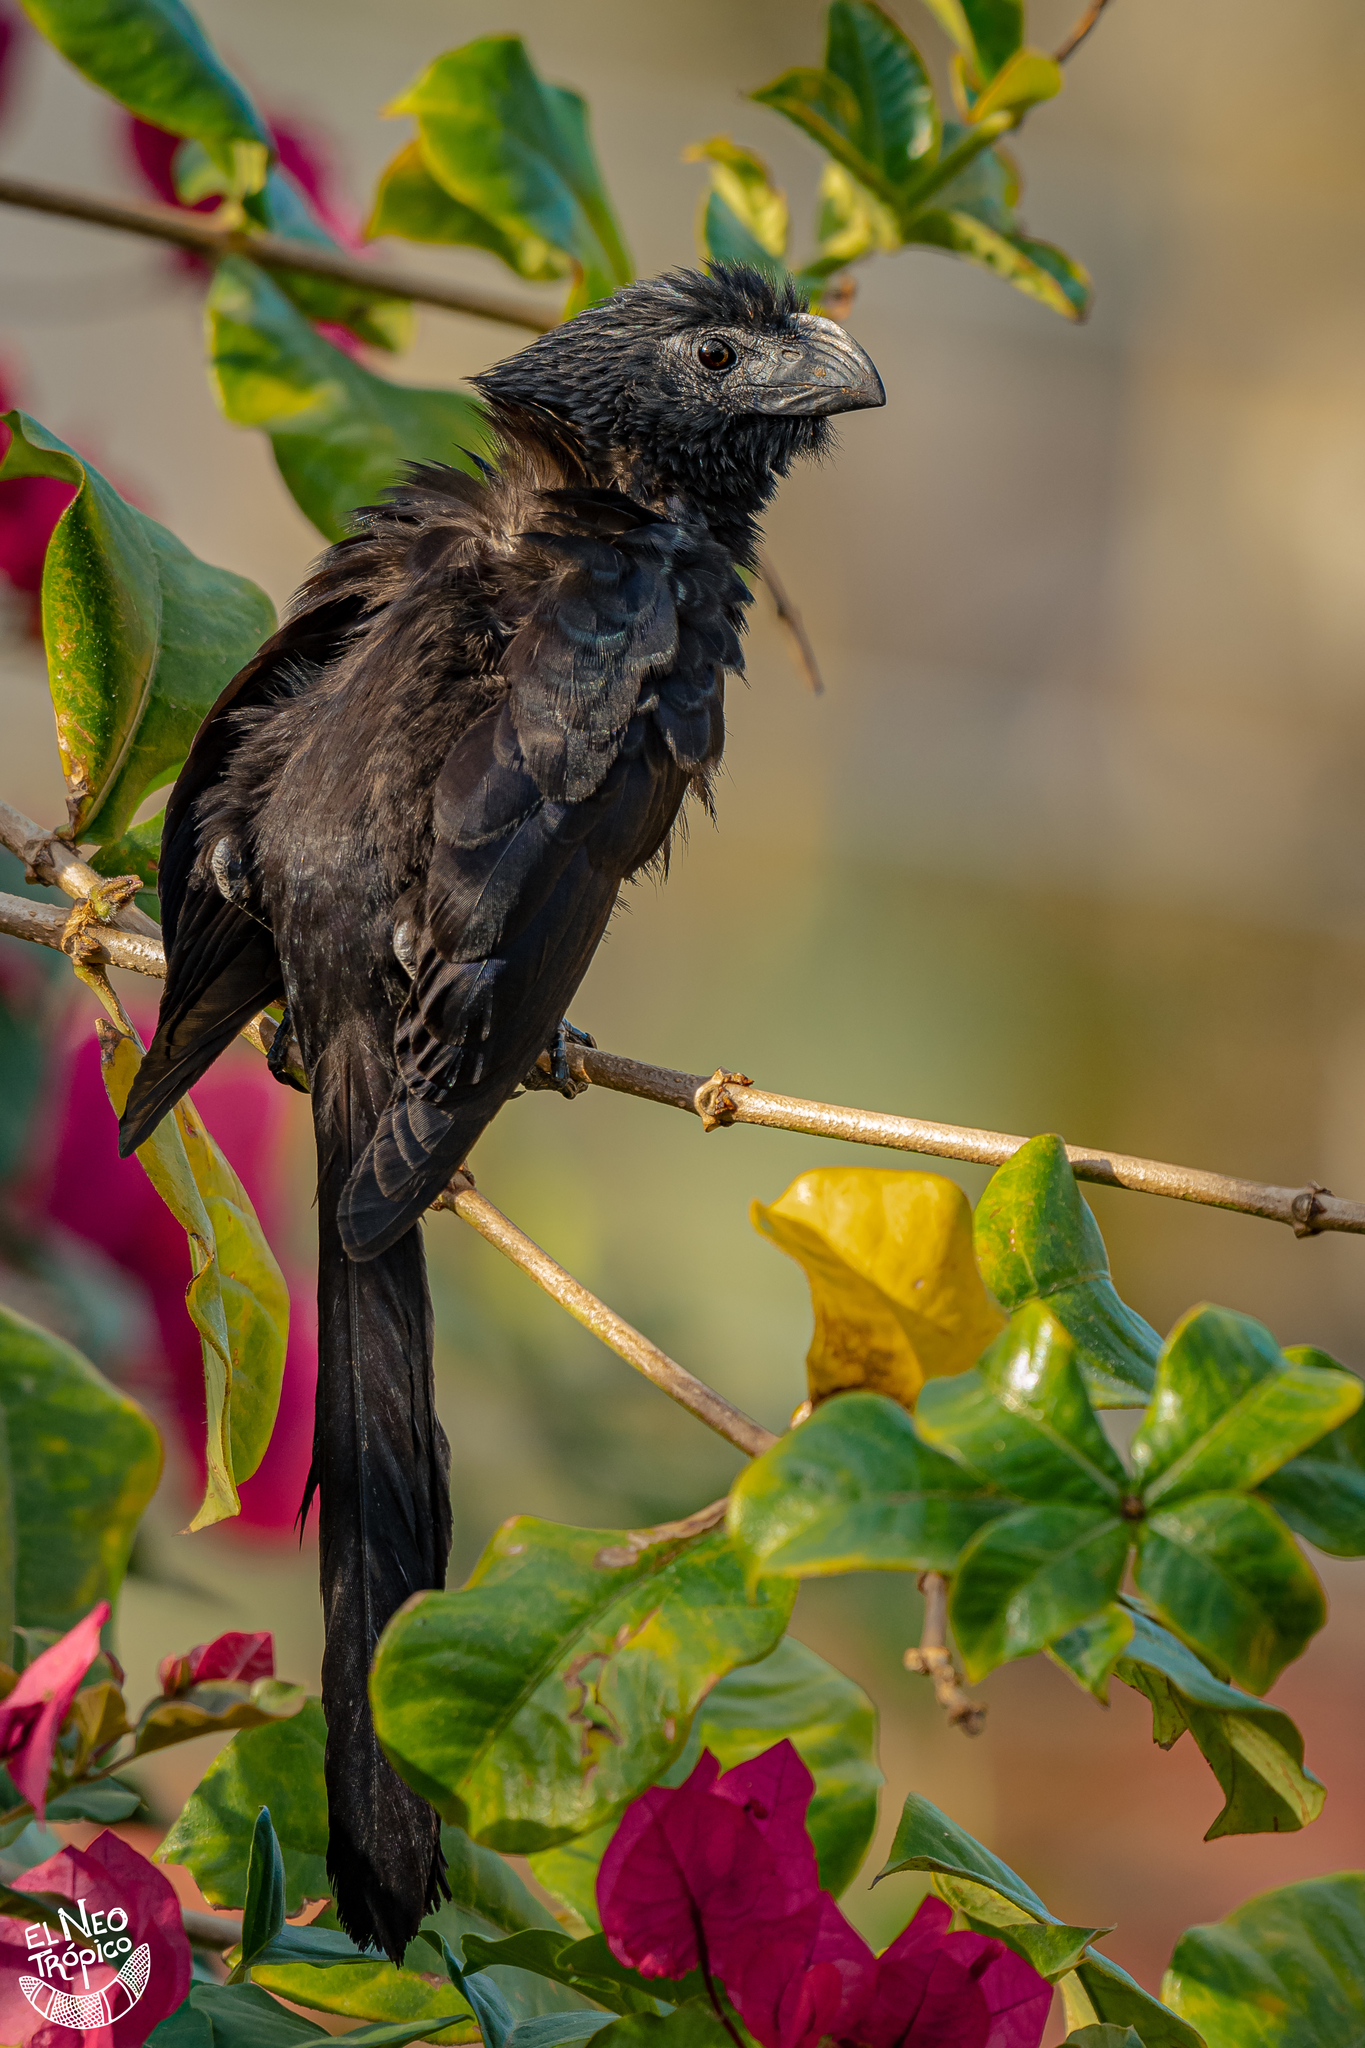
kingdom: Animalia
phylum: Chordata
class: Aves
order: Cuculiformes
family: Cuculidae
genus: Crotophaga
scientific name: Crotophaga sulcirostris
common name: Groove-billed ani
